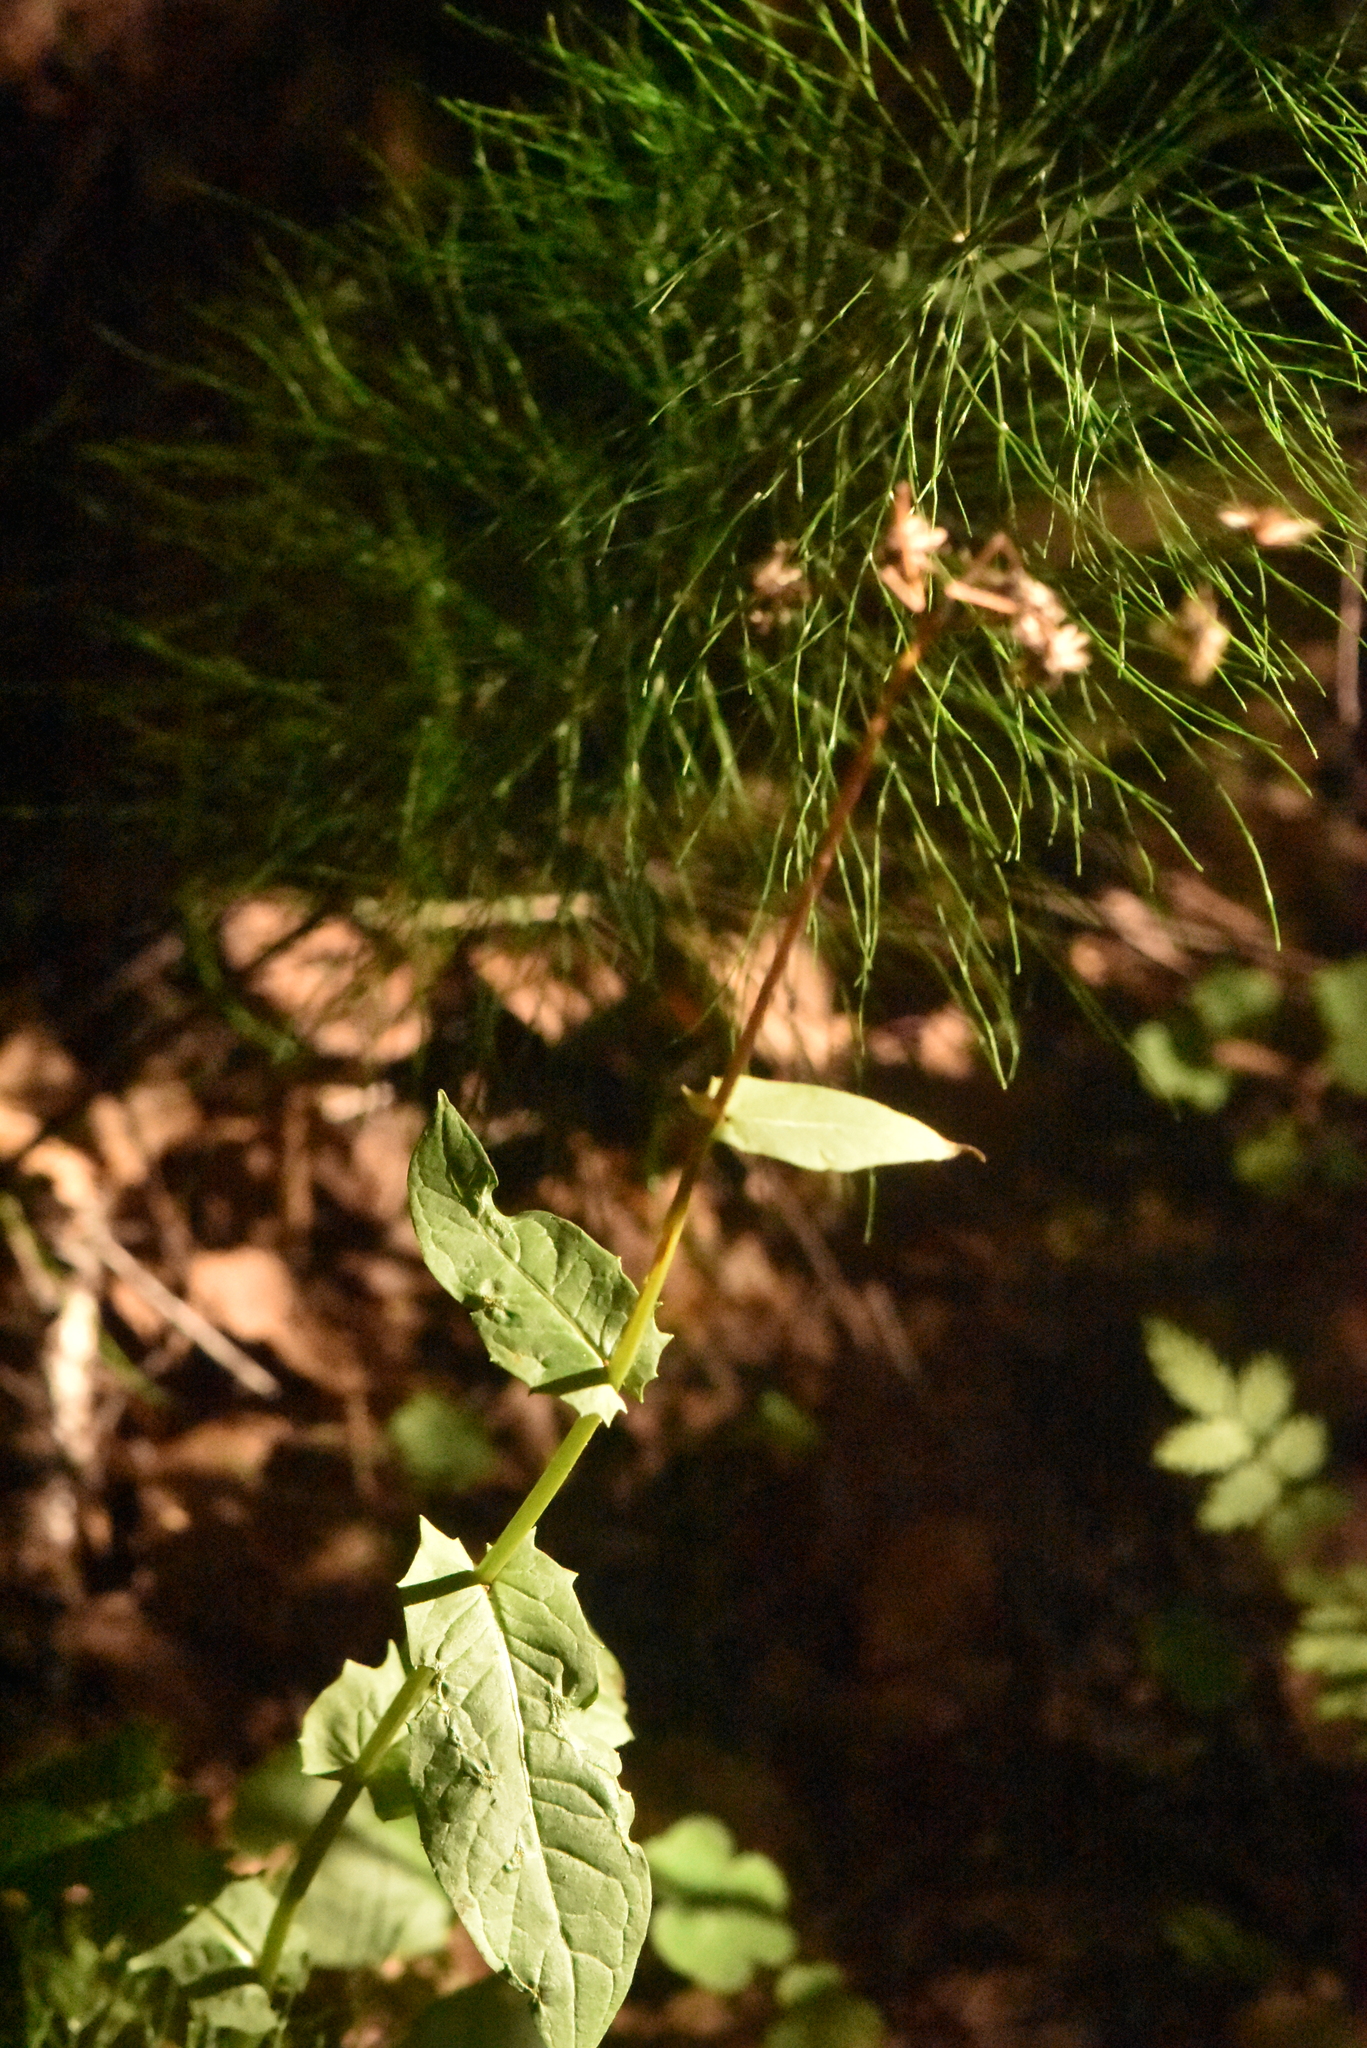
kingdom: Plantae
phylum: Tracheophyta
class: Magnoliopsida
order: Asterales
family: Asteraceae
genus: Crepis
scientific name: Crepis paludosa
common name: Marsh hawk's-beard
